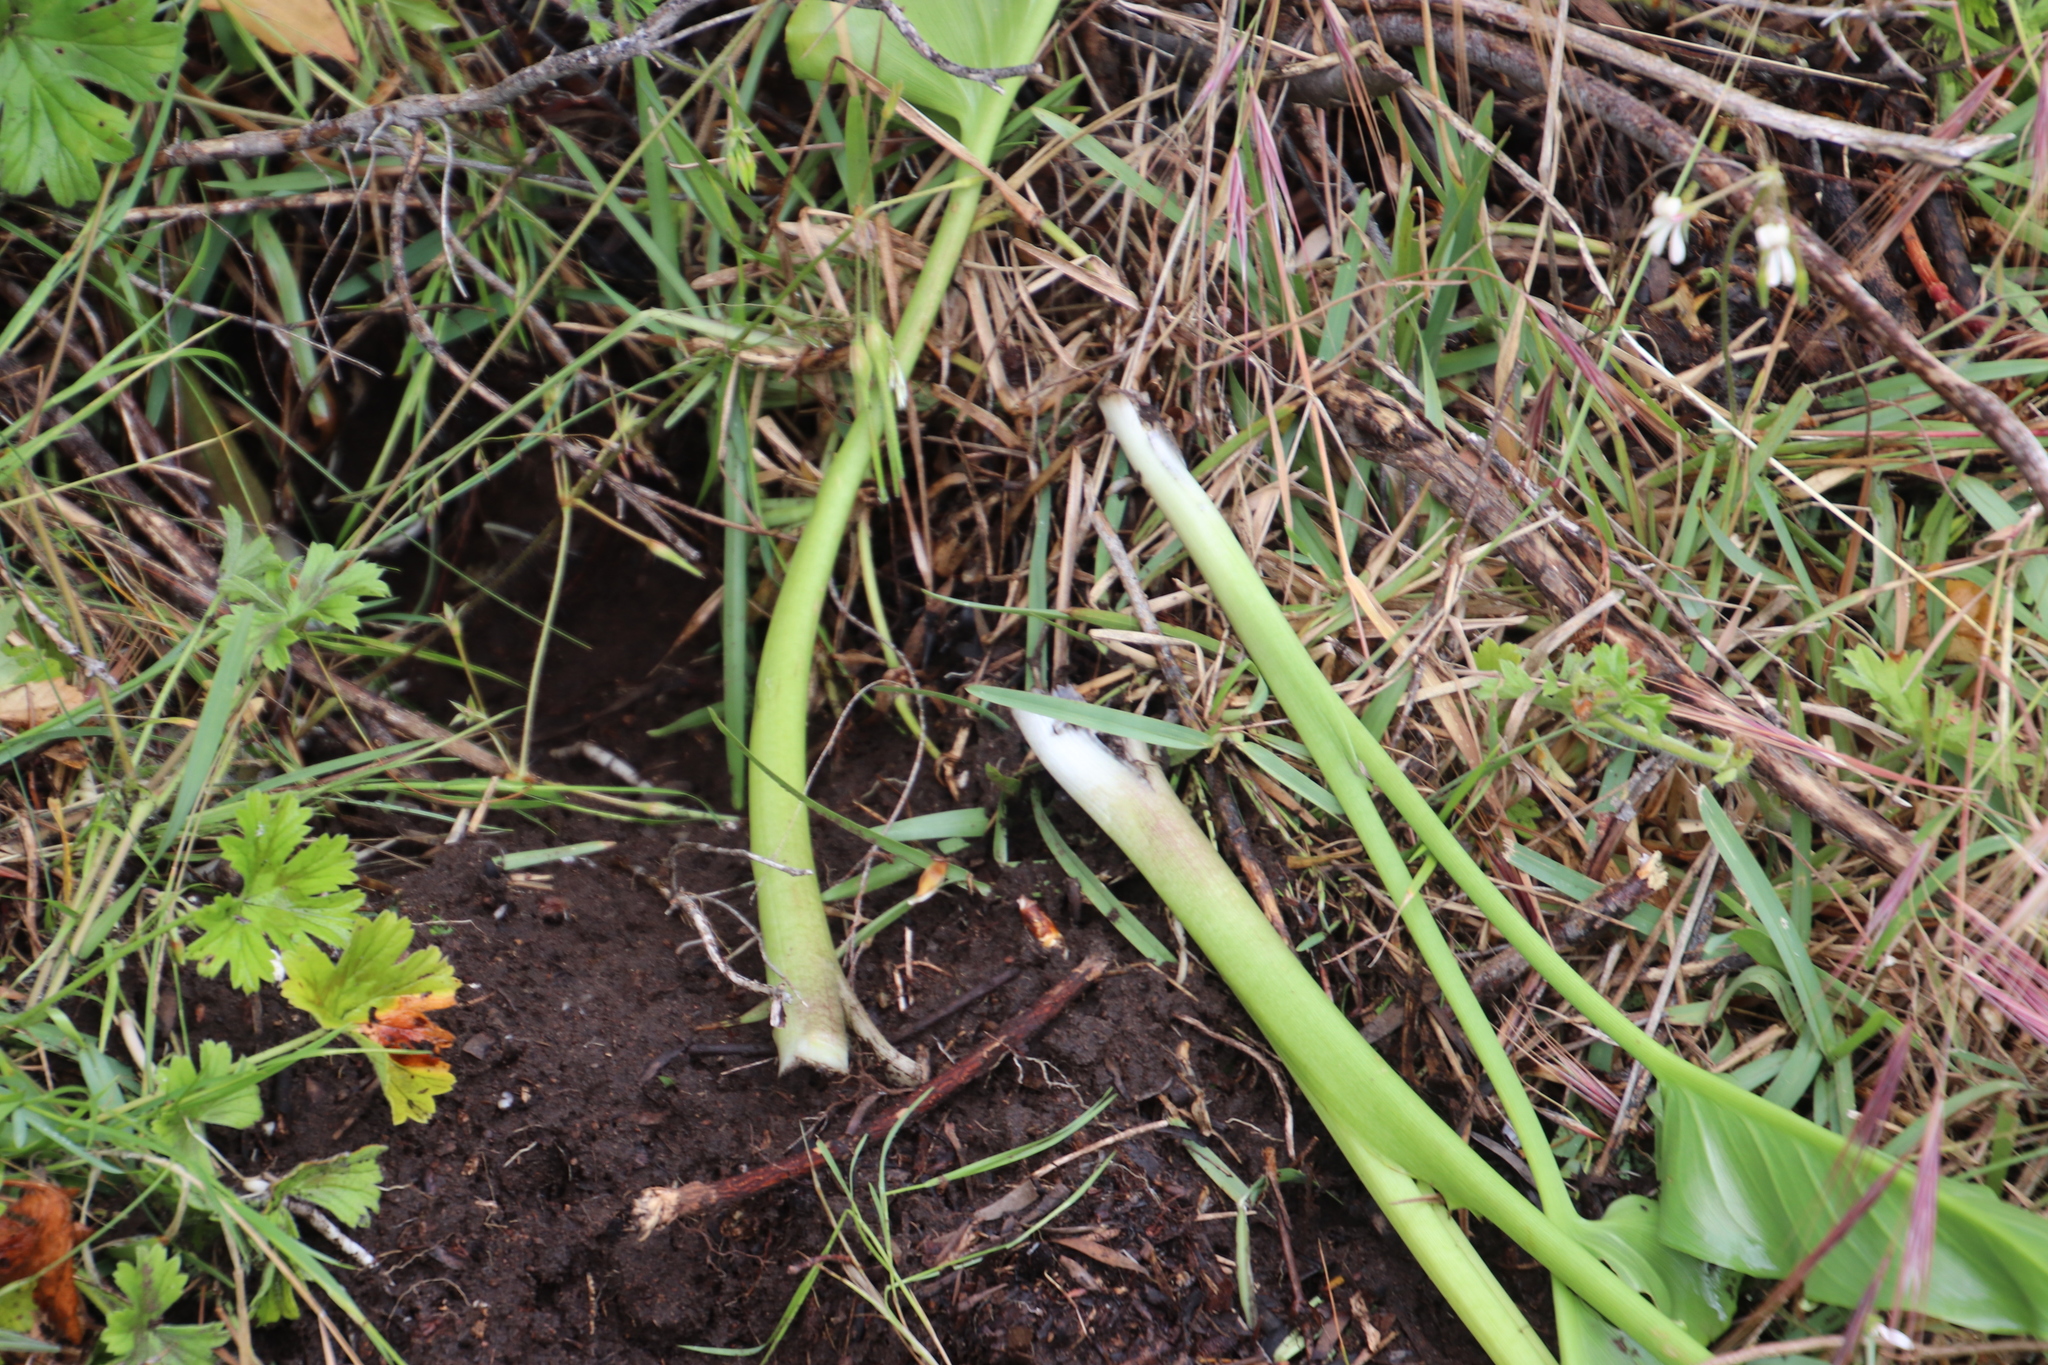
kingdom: Animalia
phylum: Chordata
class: Mammalia
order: Rodentia
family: Hystricidae
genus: Hystrix
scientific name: Hystrix africaeaustralis
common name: Cape porcupine
